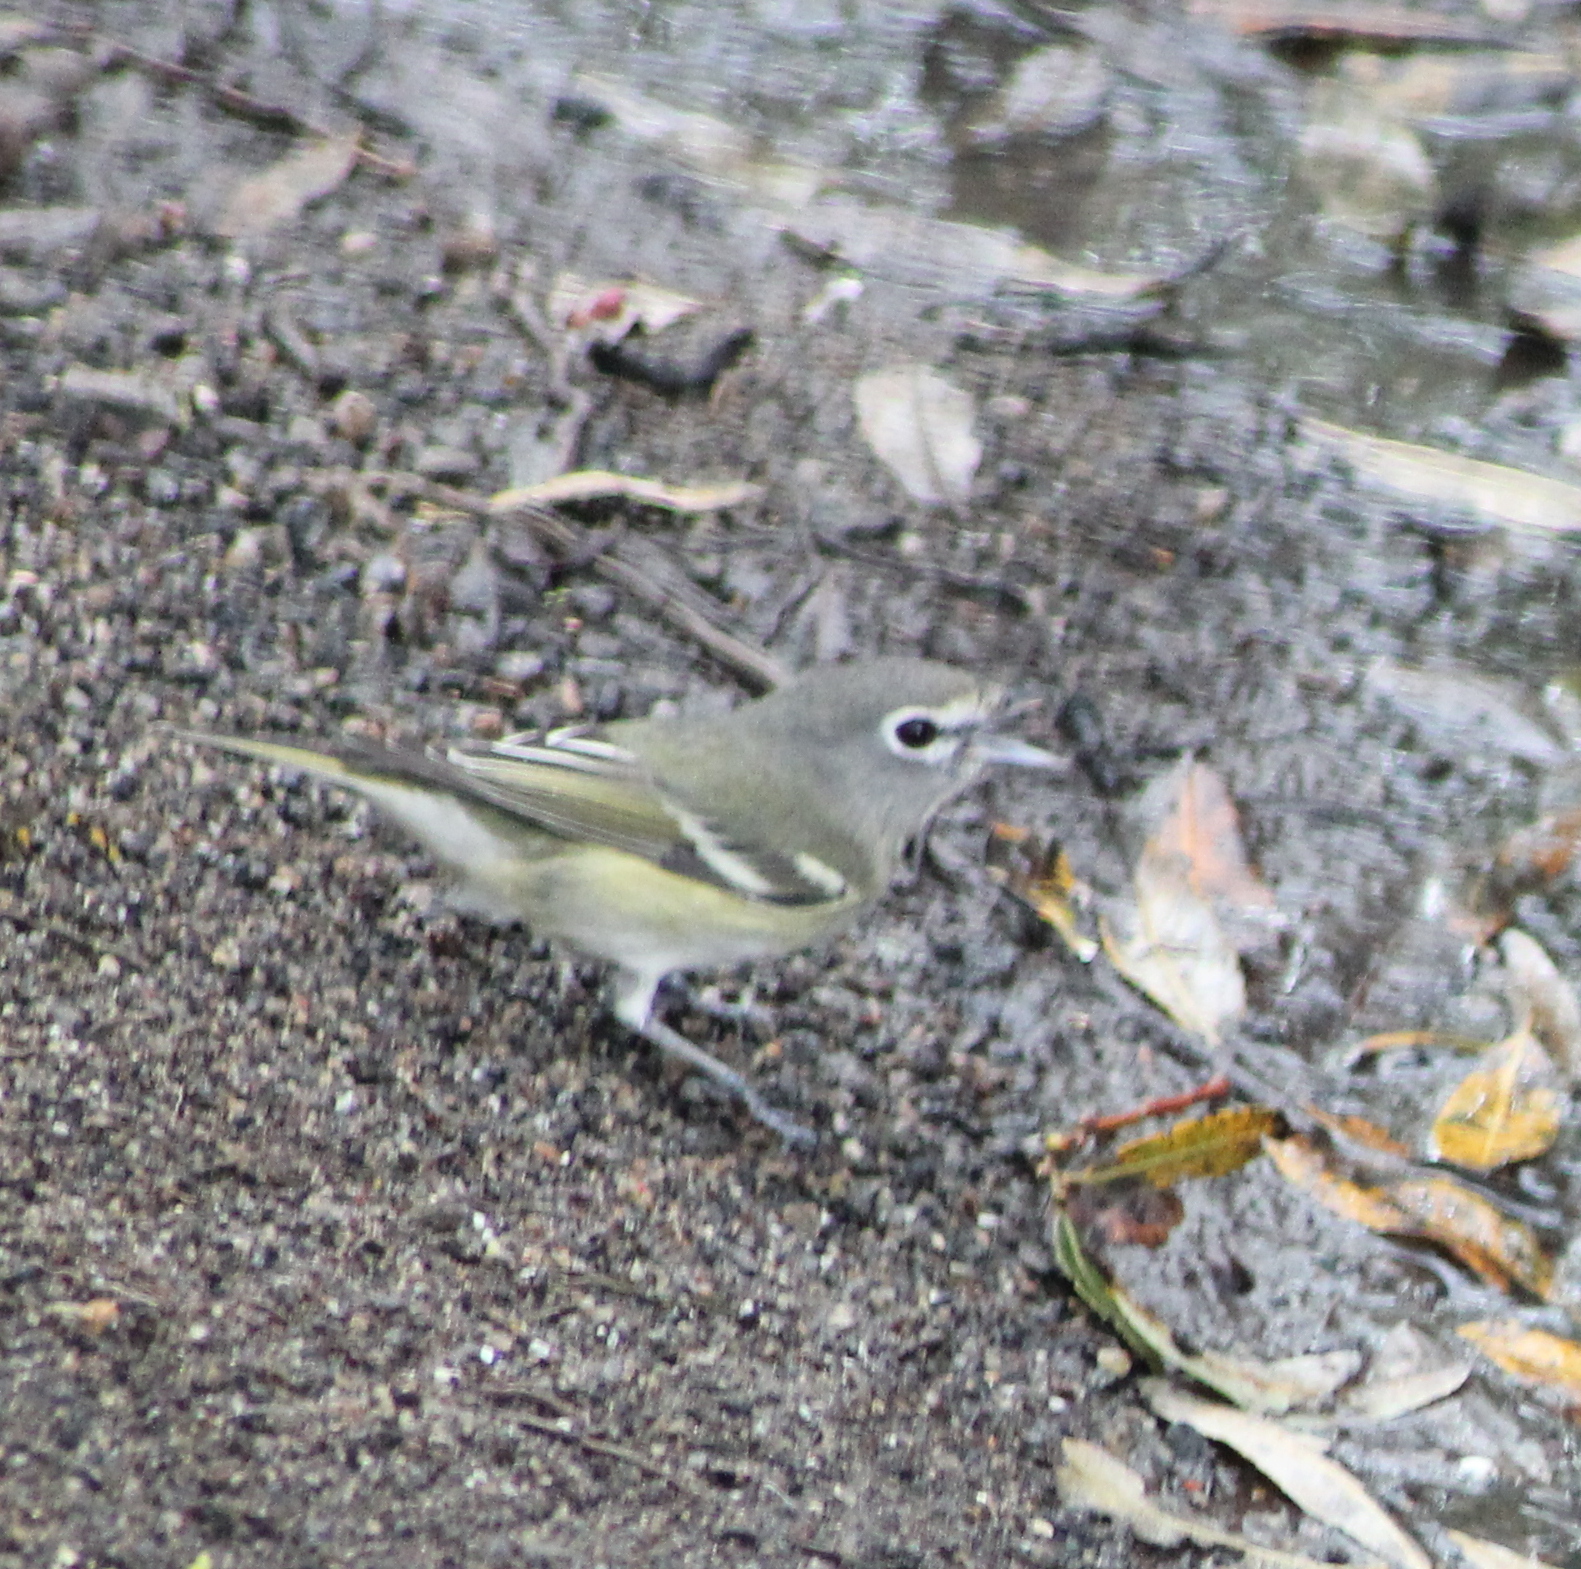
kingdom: Animalia
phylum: Chordata
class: Aves
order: Passeriformes
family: Vireonidae
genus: Vireo
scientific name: Vireo cassinii
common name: Cassin's vireo
